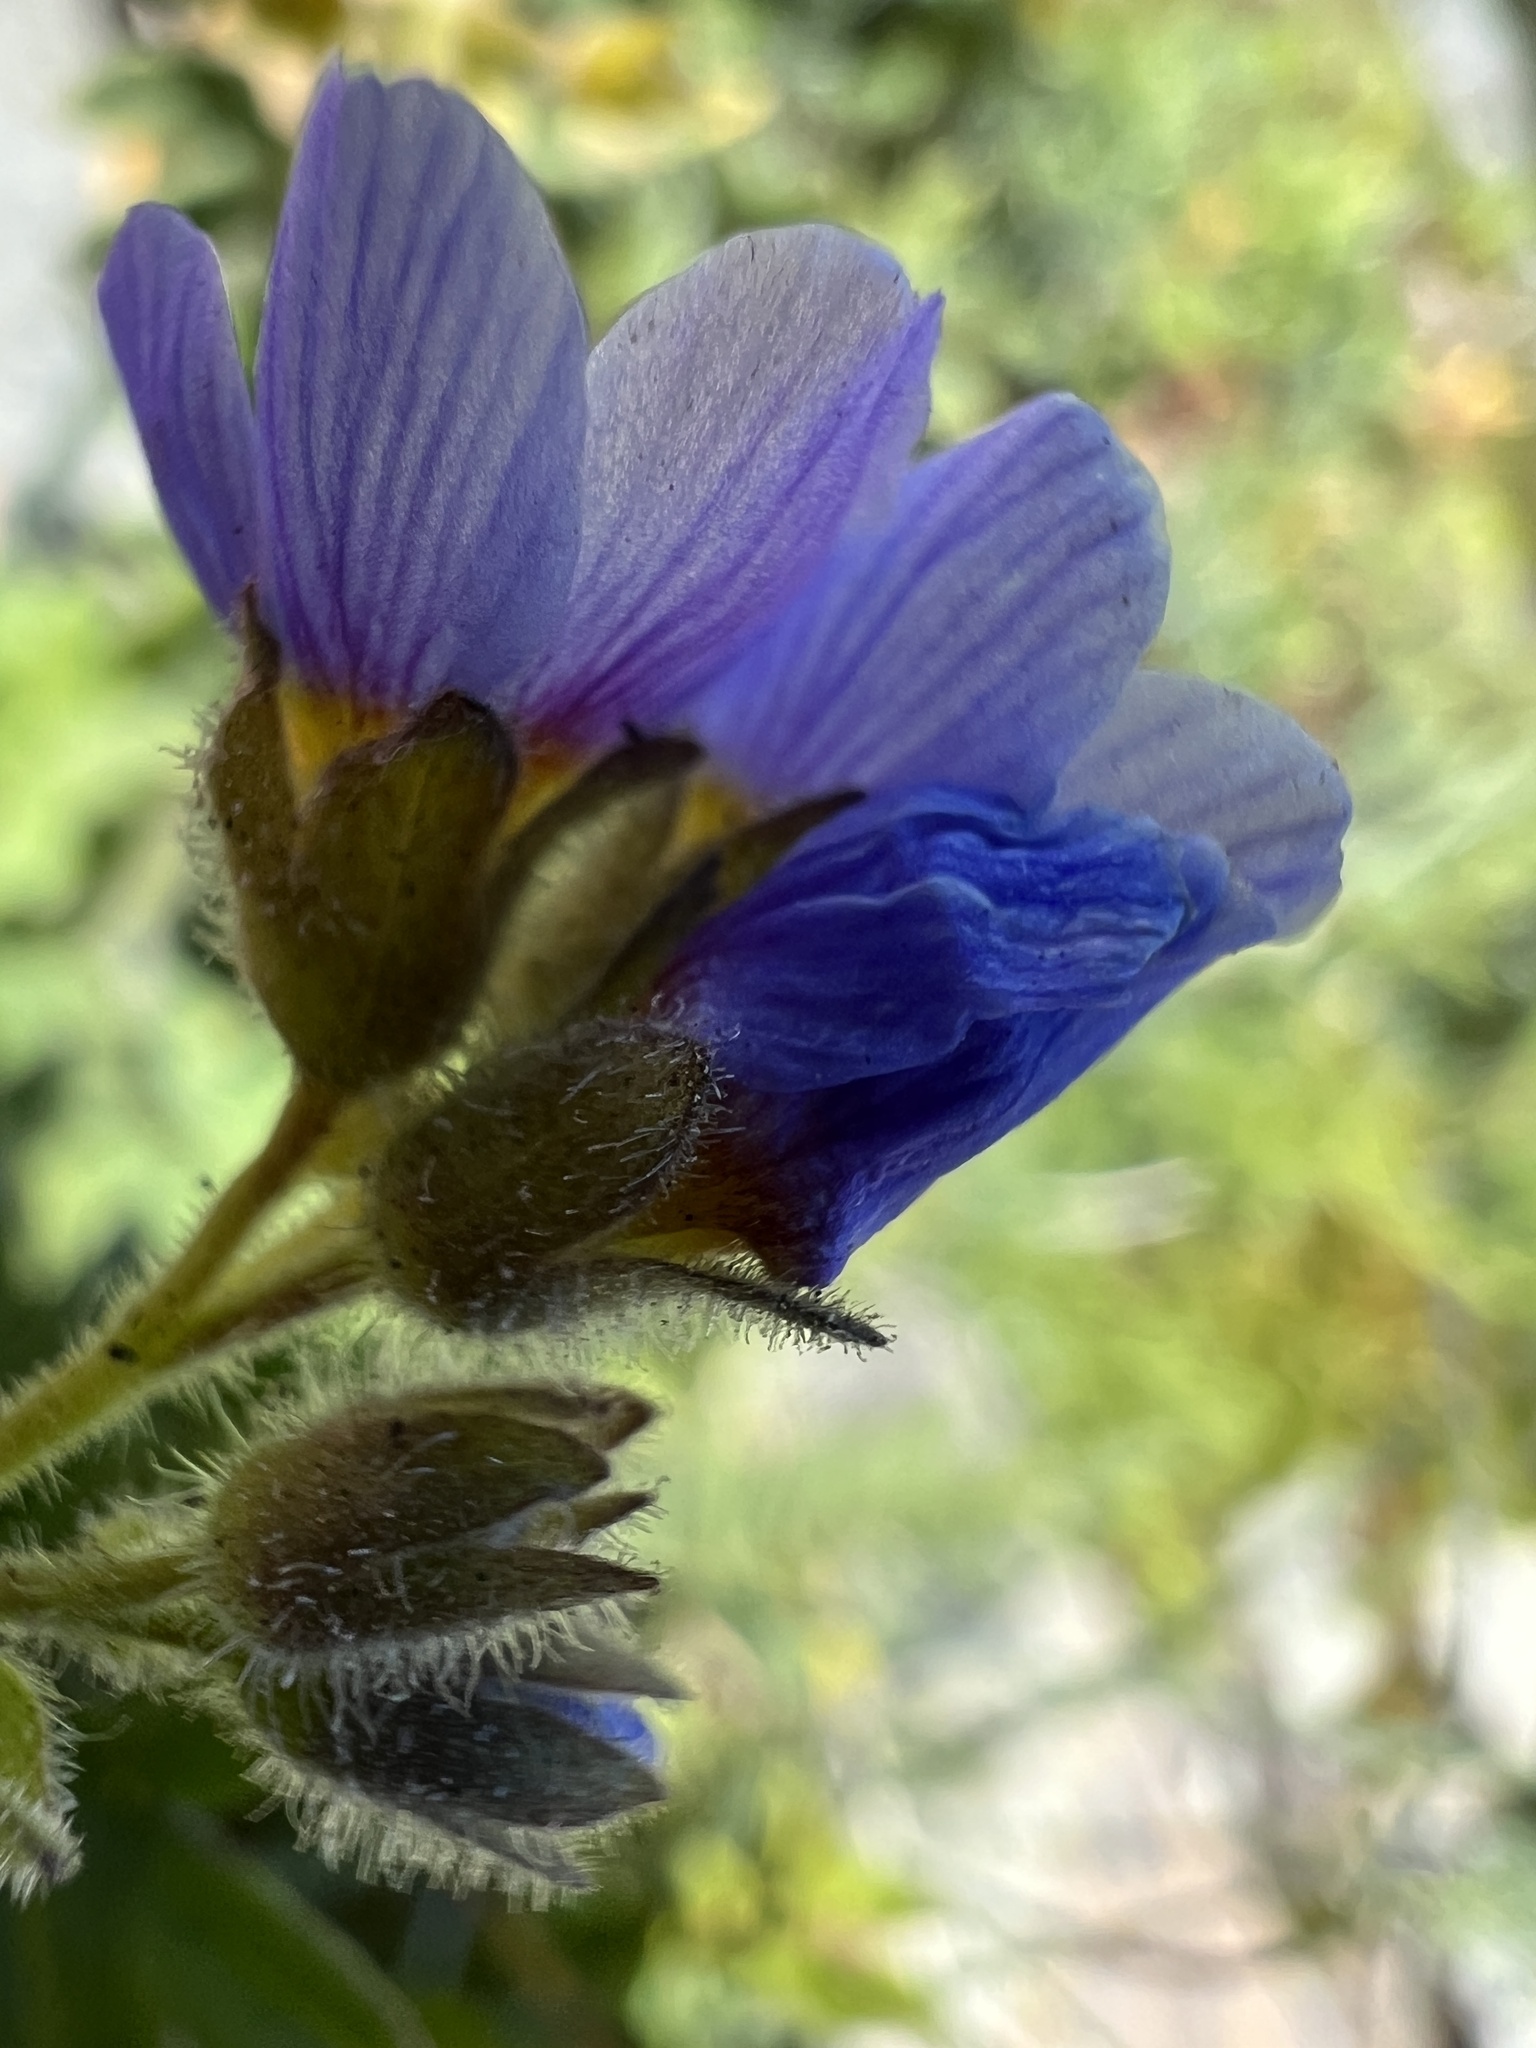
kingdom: Plantae
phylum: Tracheophyta
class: Magnoliopsida
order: Ericales
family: Polemoniaceae
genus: Polemonium
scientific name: Polemonium californicum
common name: California jacob's ladder
